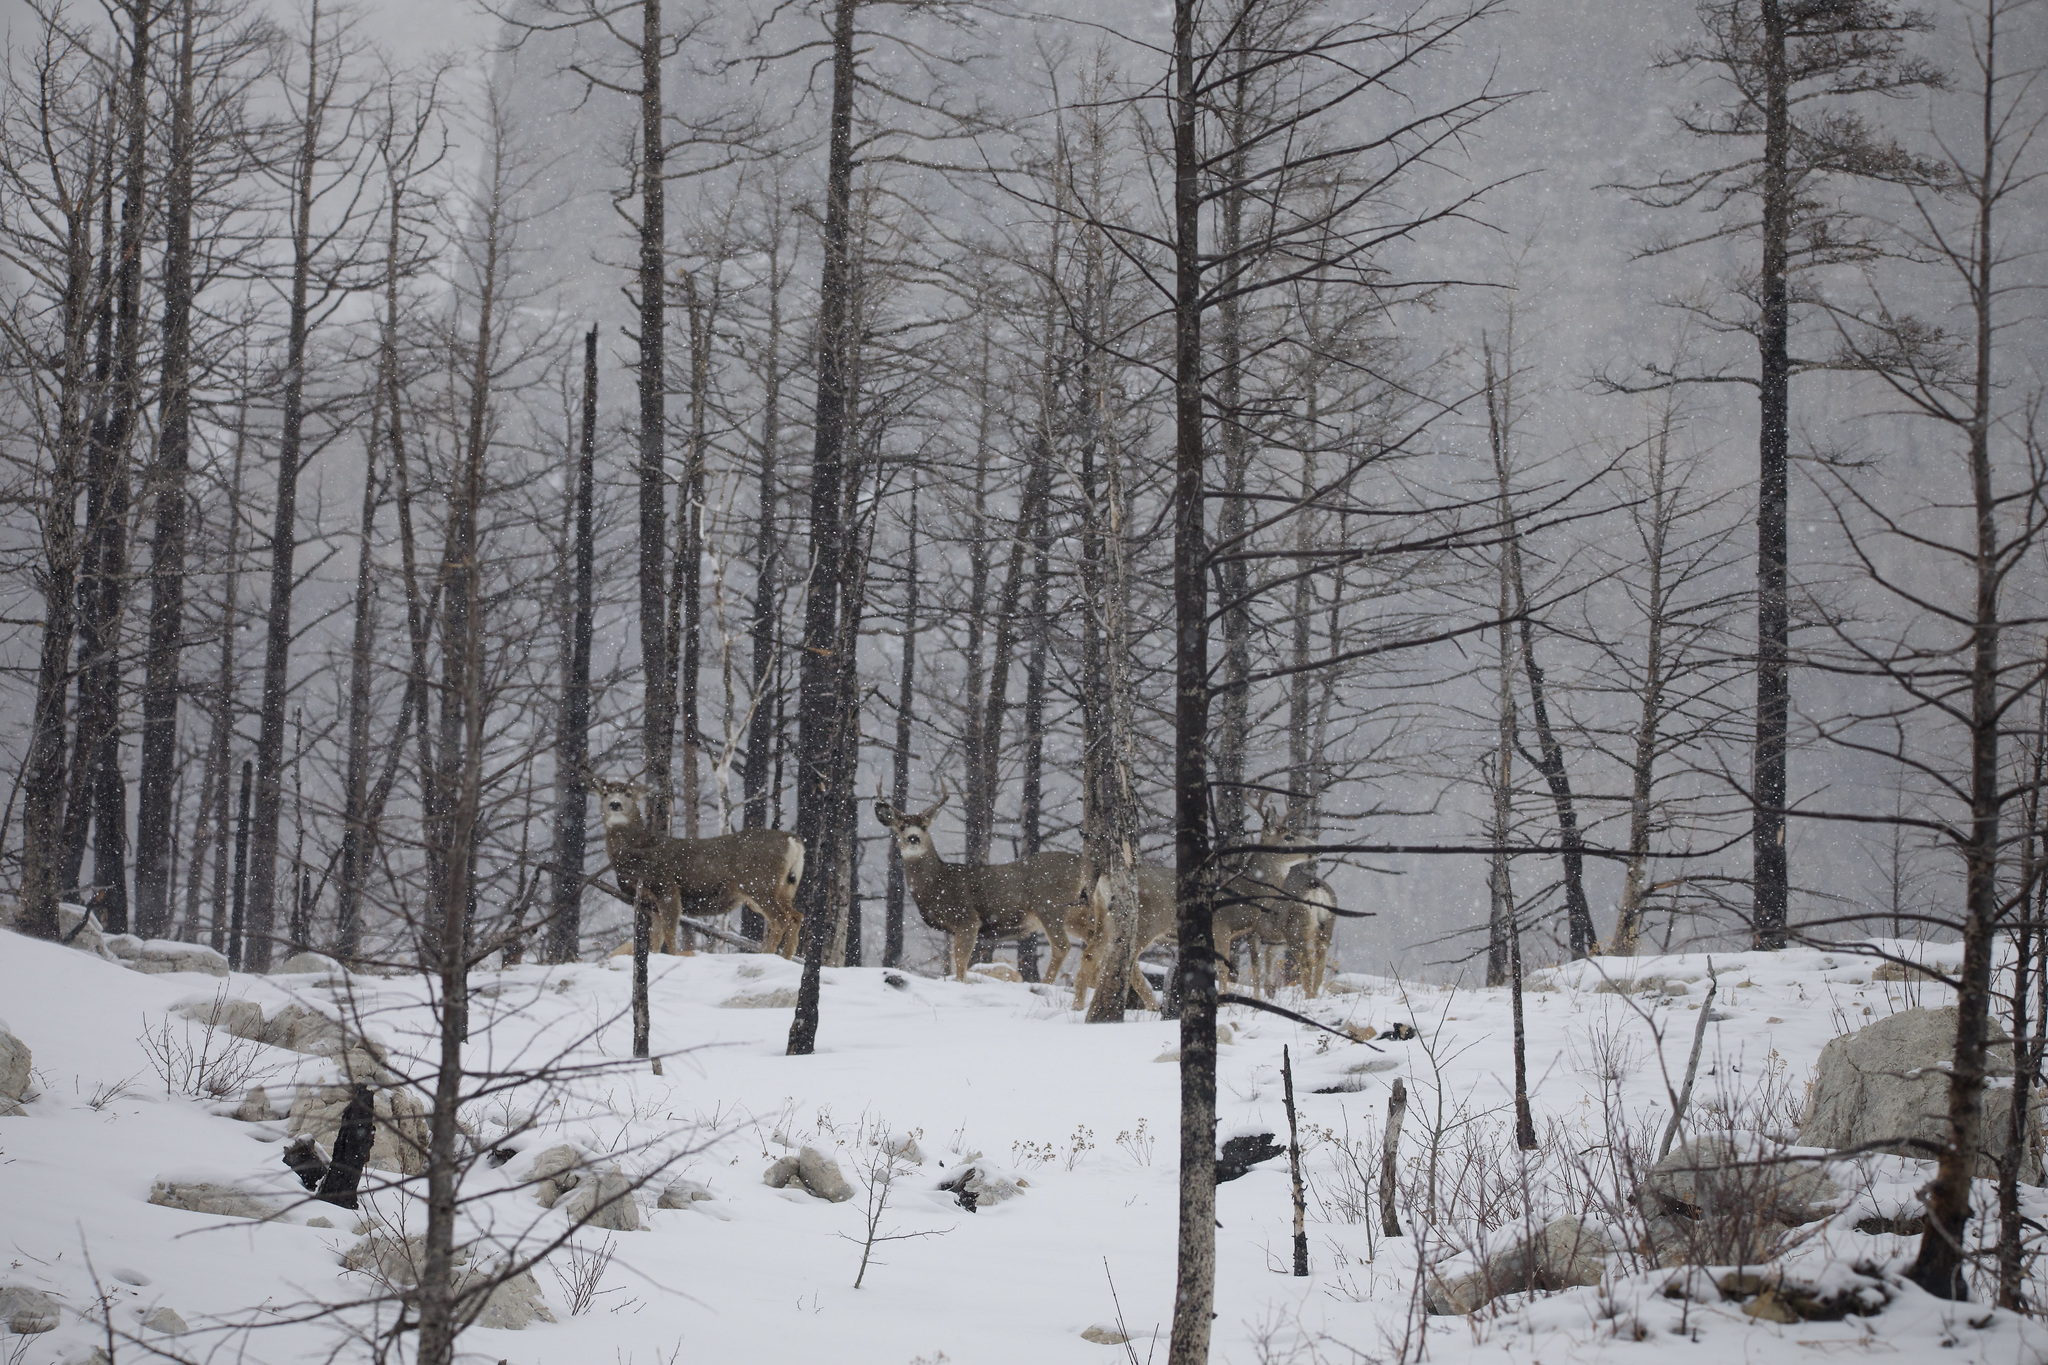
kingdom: Animalia
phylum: Chordata
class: Mammalia
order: Artiodactyla
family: Cervidae
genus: Odocoileus
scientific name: Odocoileus hemionus
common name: Mule deer
